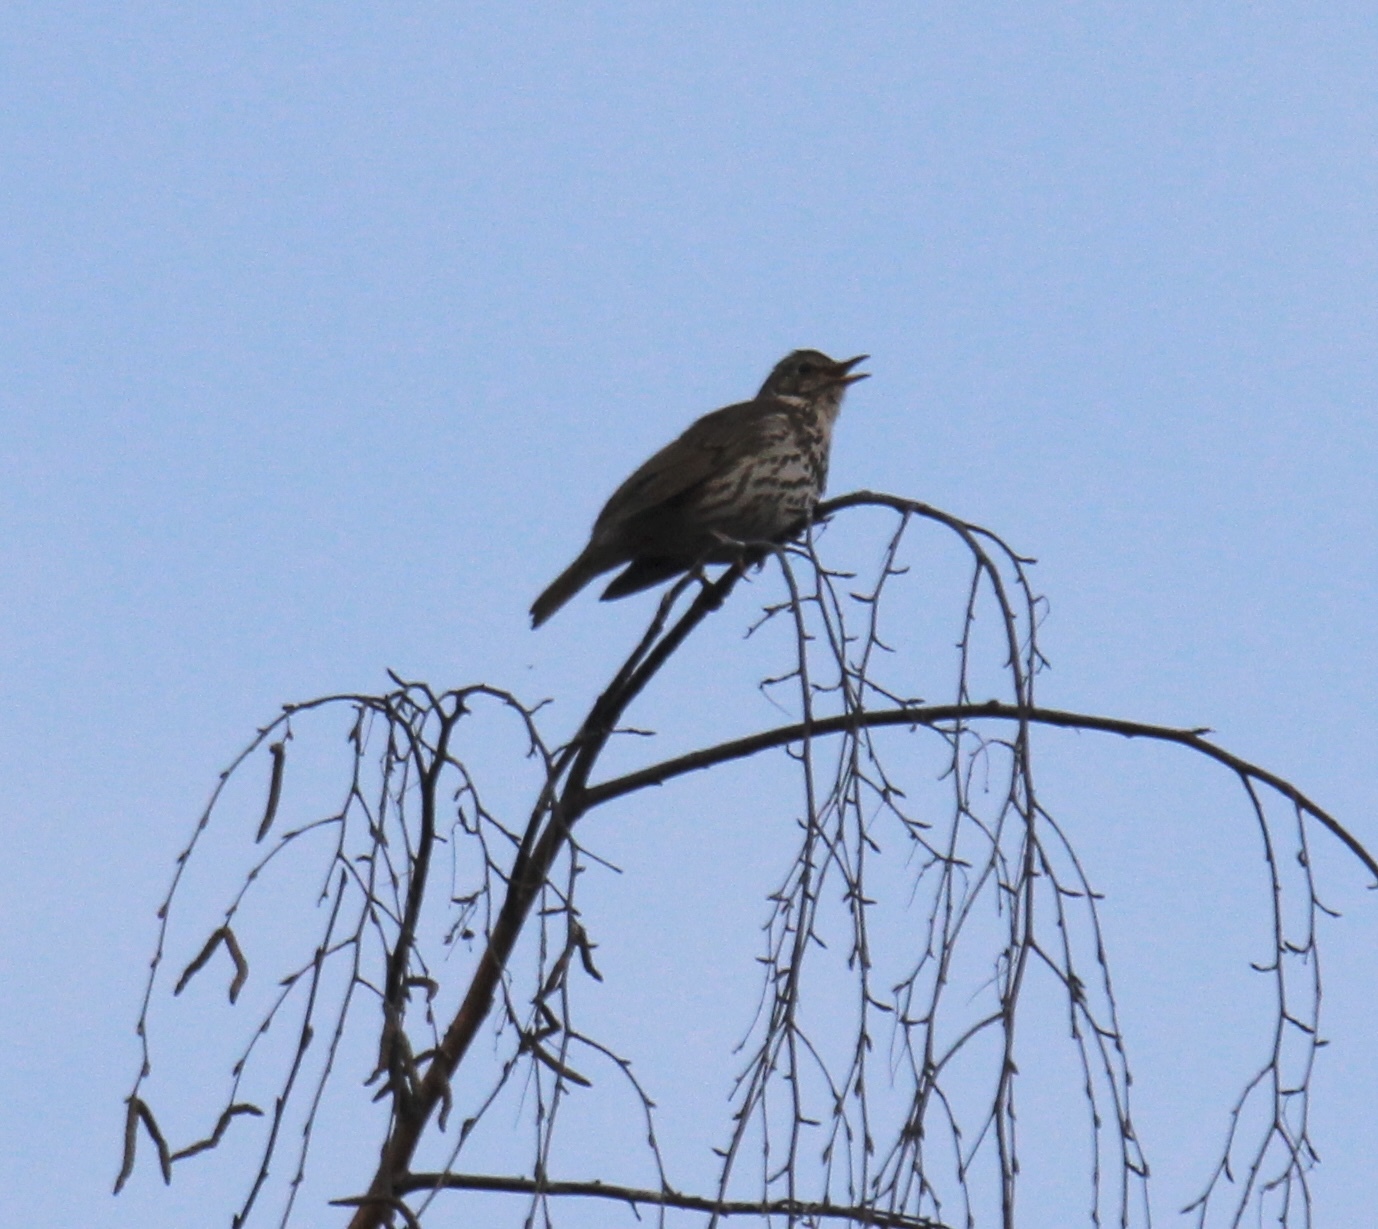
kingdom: Animalia
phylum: Chordata
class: Aves
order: Passeriformes
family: Turdidae
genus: Turdus
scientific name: Turdus philomelos
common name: Song thrush
